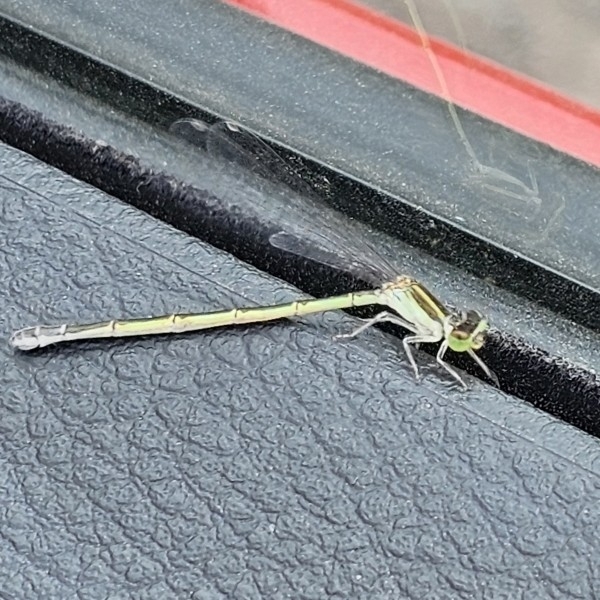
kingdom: Animalia
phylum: Arthropoda
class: Insecta
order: Odonata
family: Coenagrionidae
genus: Ischnura
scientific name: Ischnura aurora
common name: Gossamer damselfly
